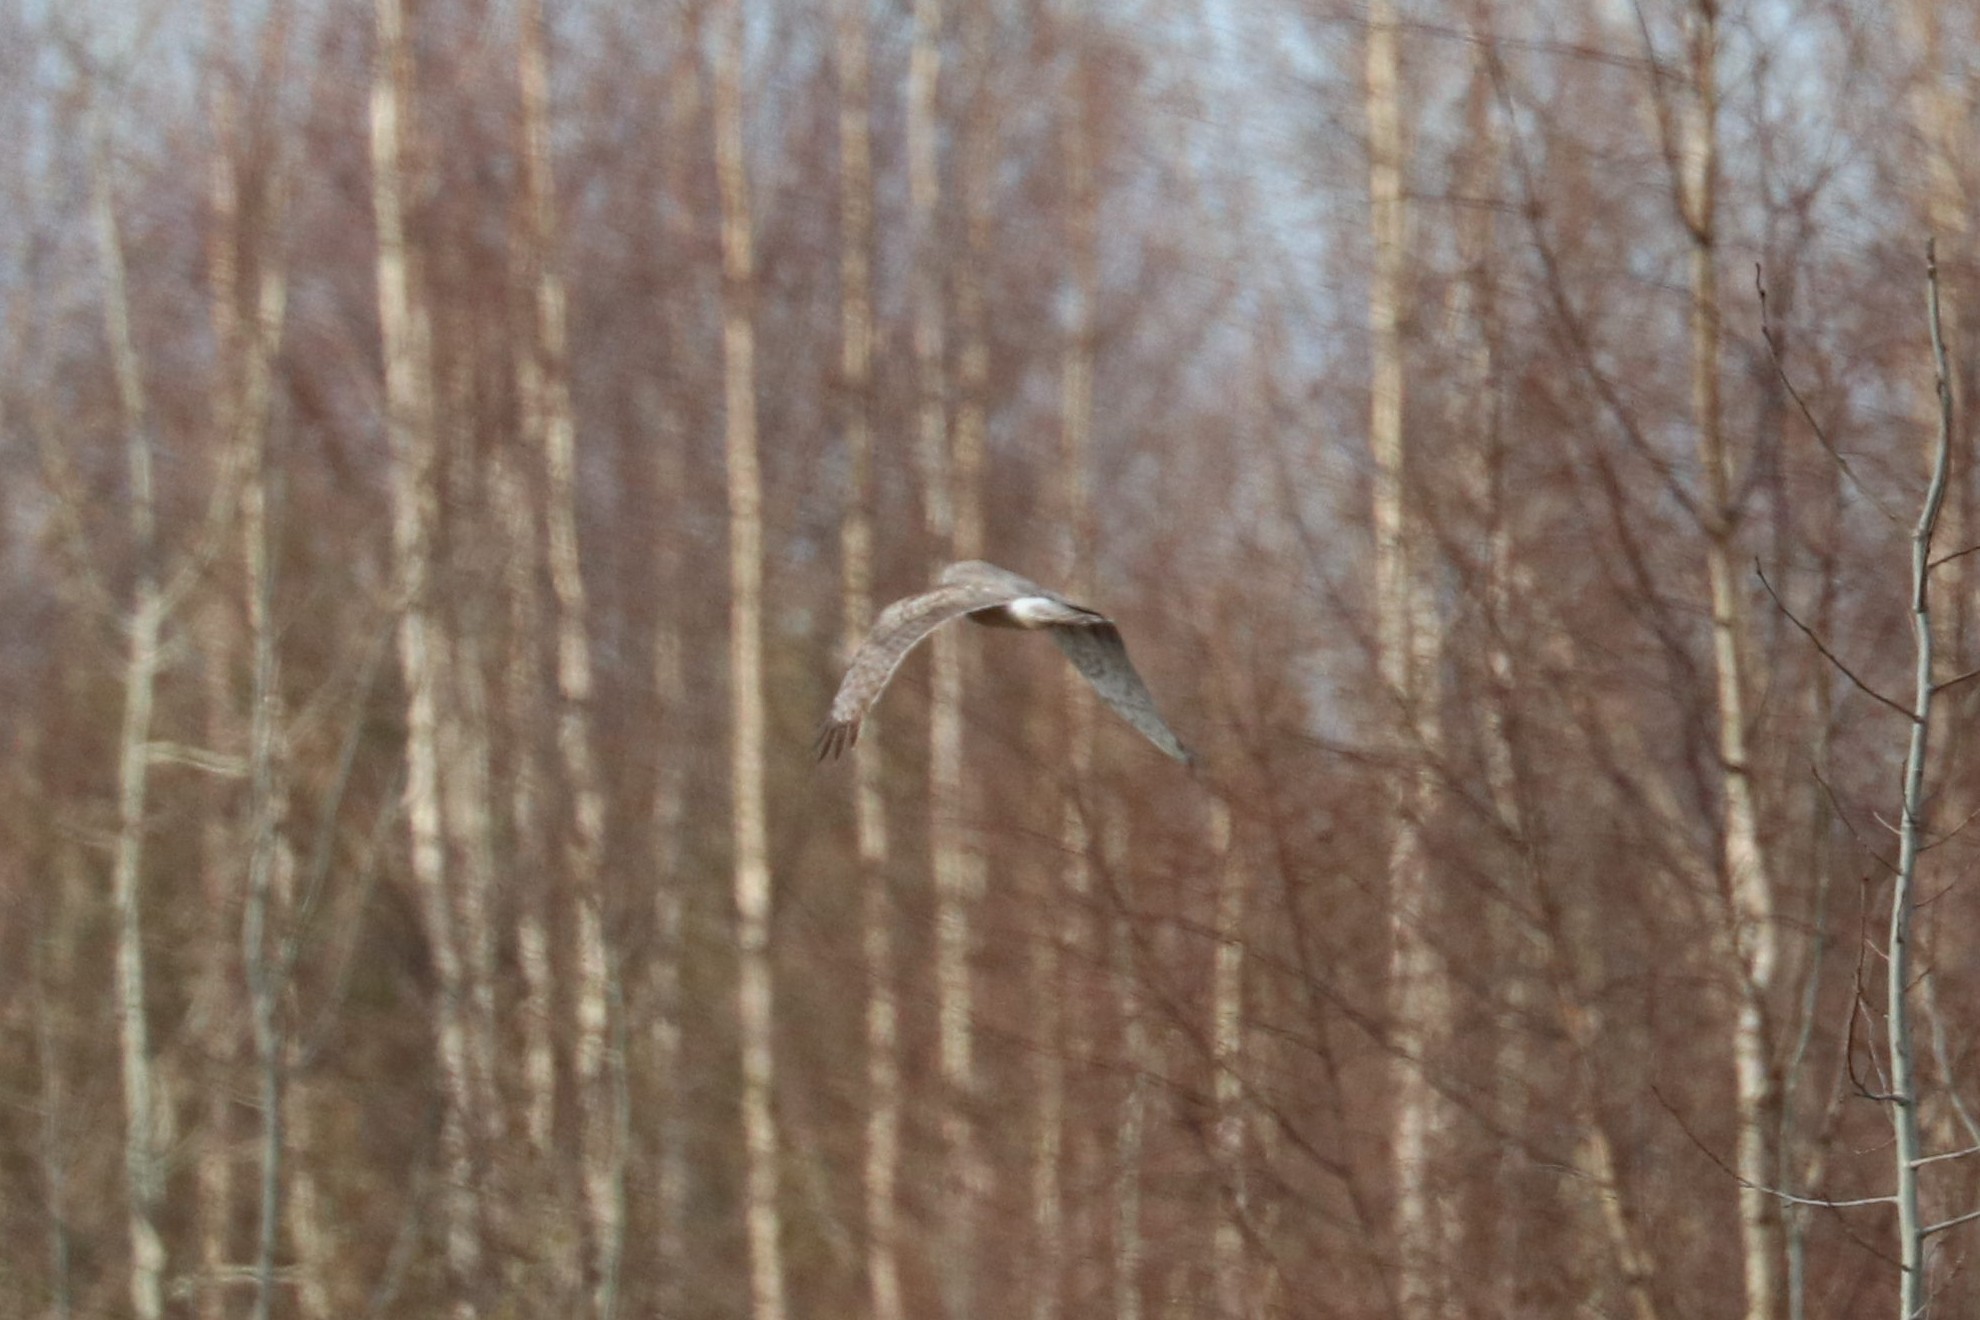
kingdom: Animalia
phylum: Chordata
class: Aves
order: Accipitriformes
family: Accipitridae
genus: Circus
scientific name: Circus cyaneus
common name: Hen harrier
